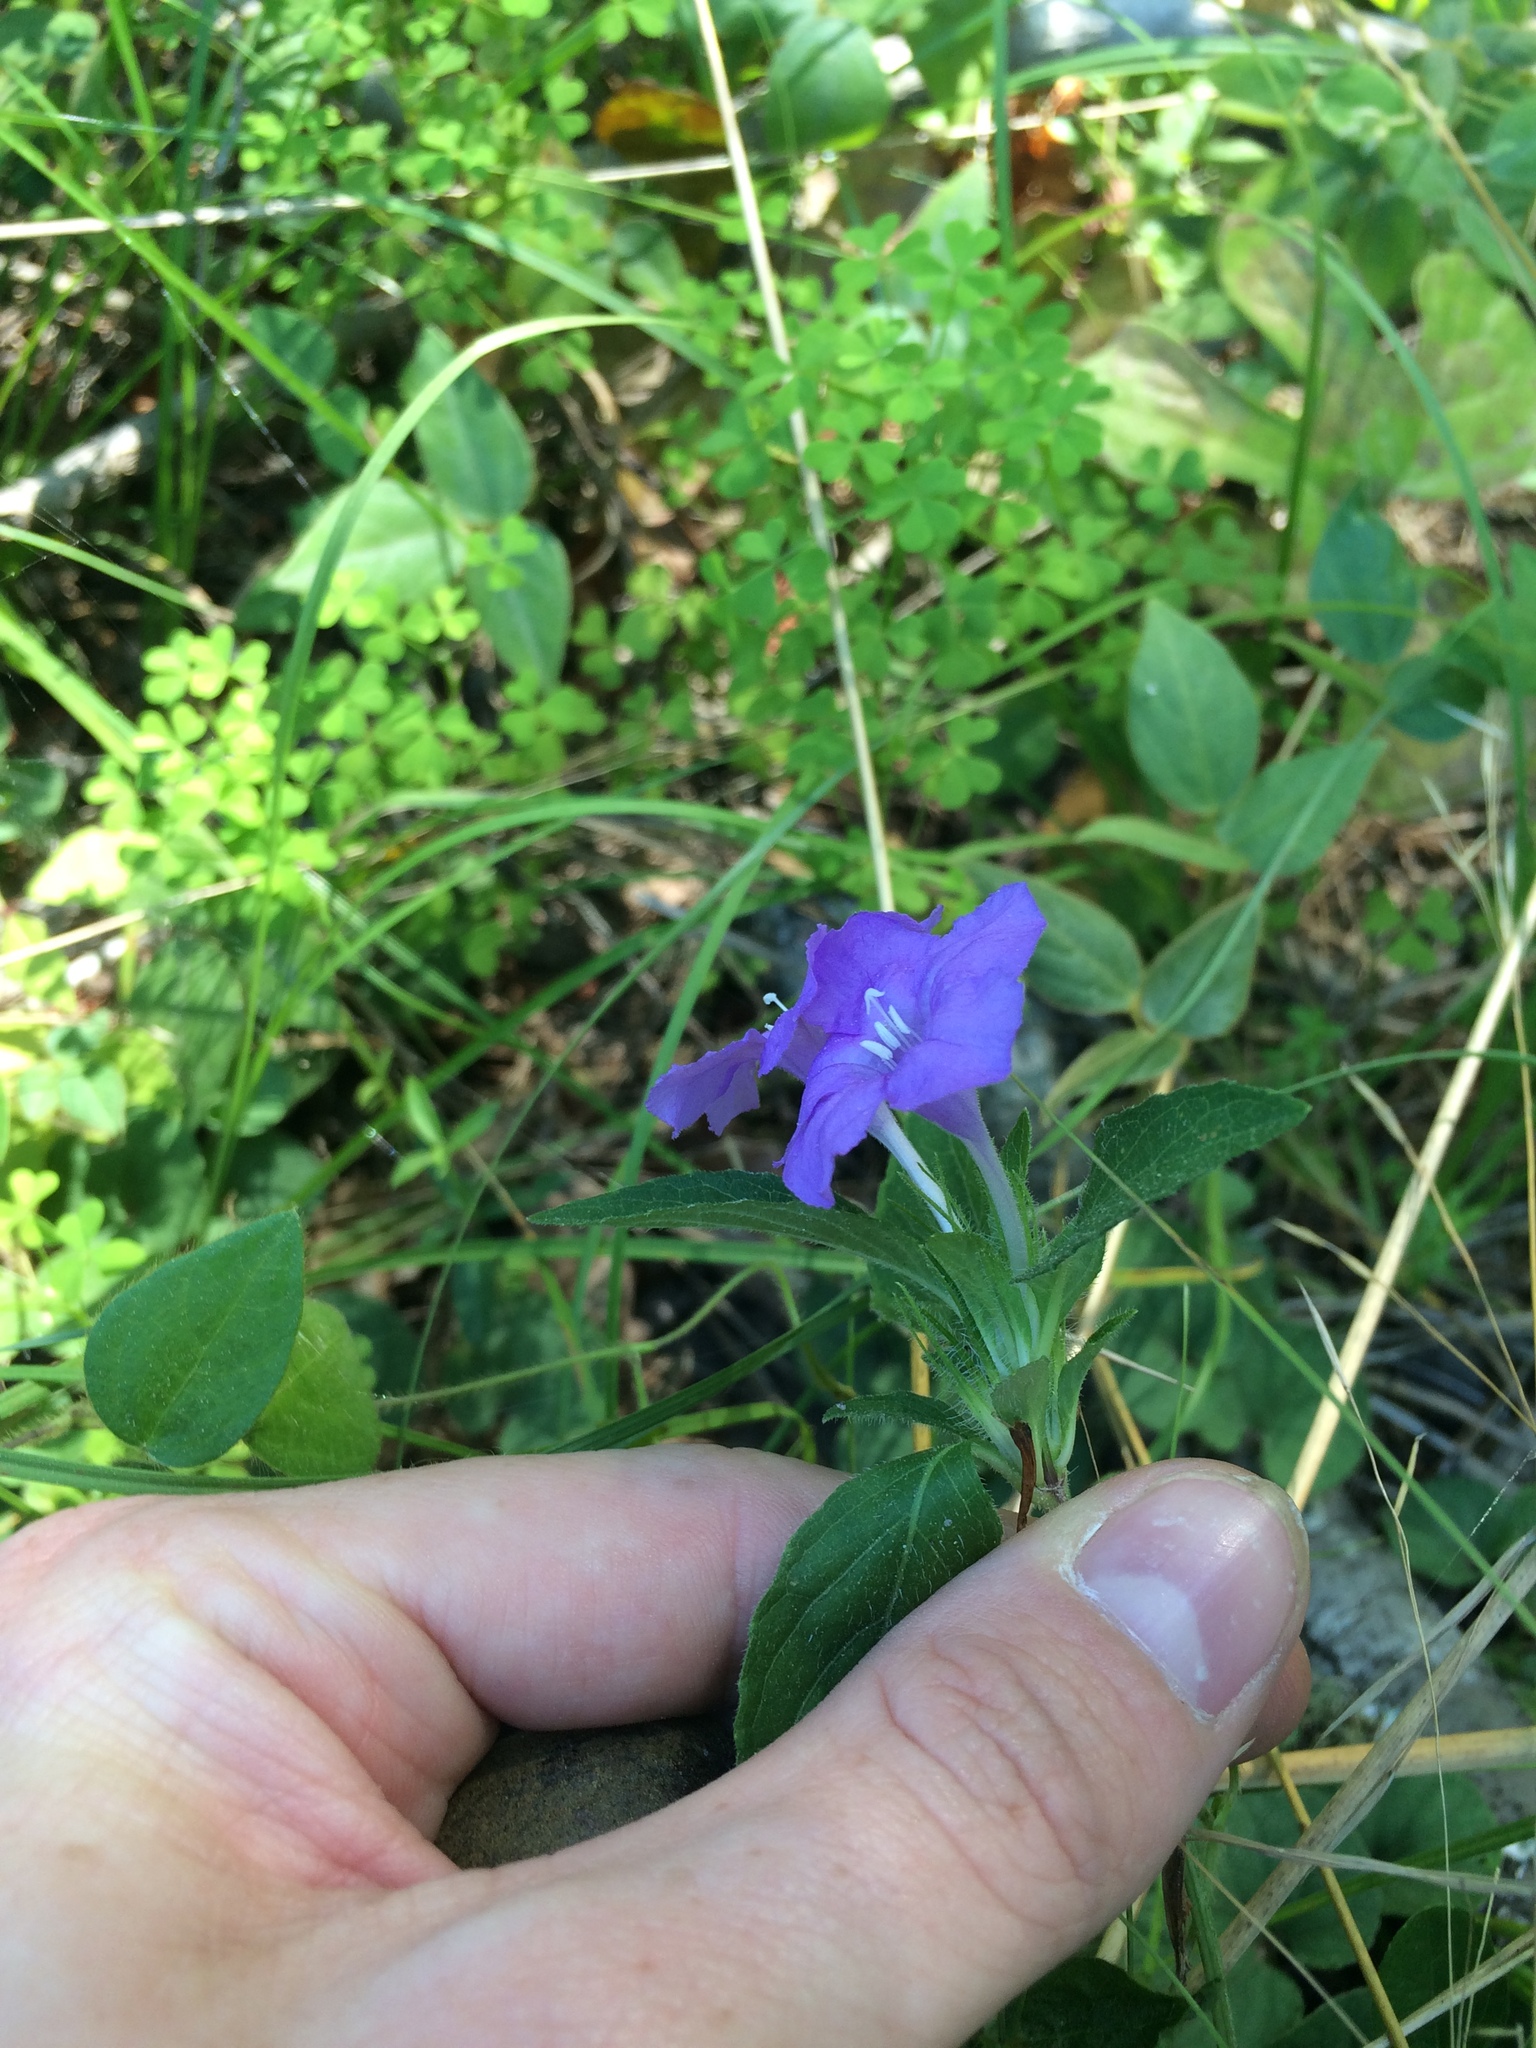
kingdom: Plantae
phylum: Tracheophyta
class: Magnoliopsida
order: Lamiales
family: Acanthaceae
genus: Ruellia
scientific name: Ruellia caroliniensis
